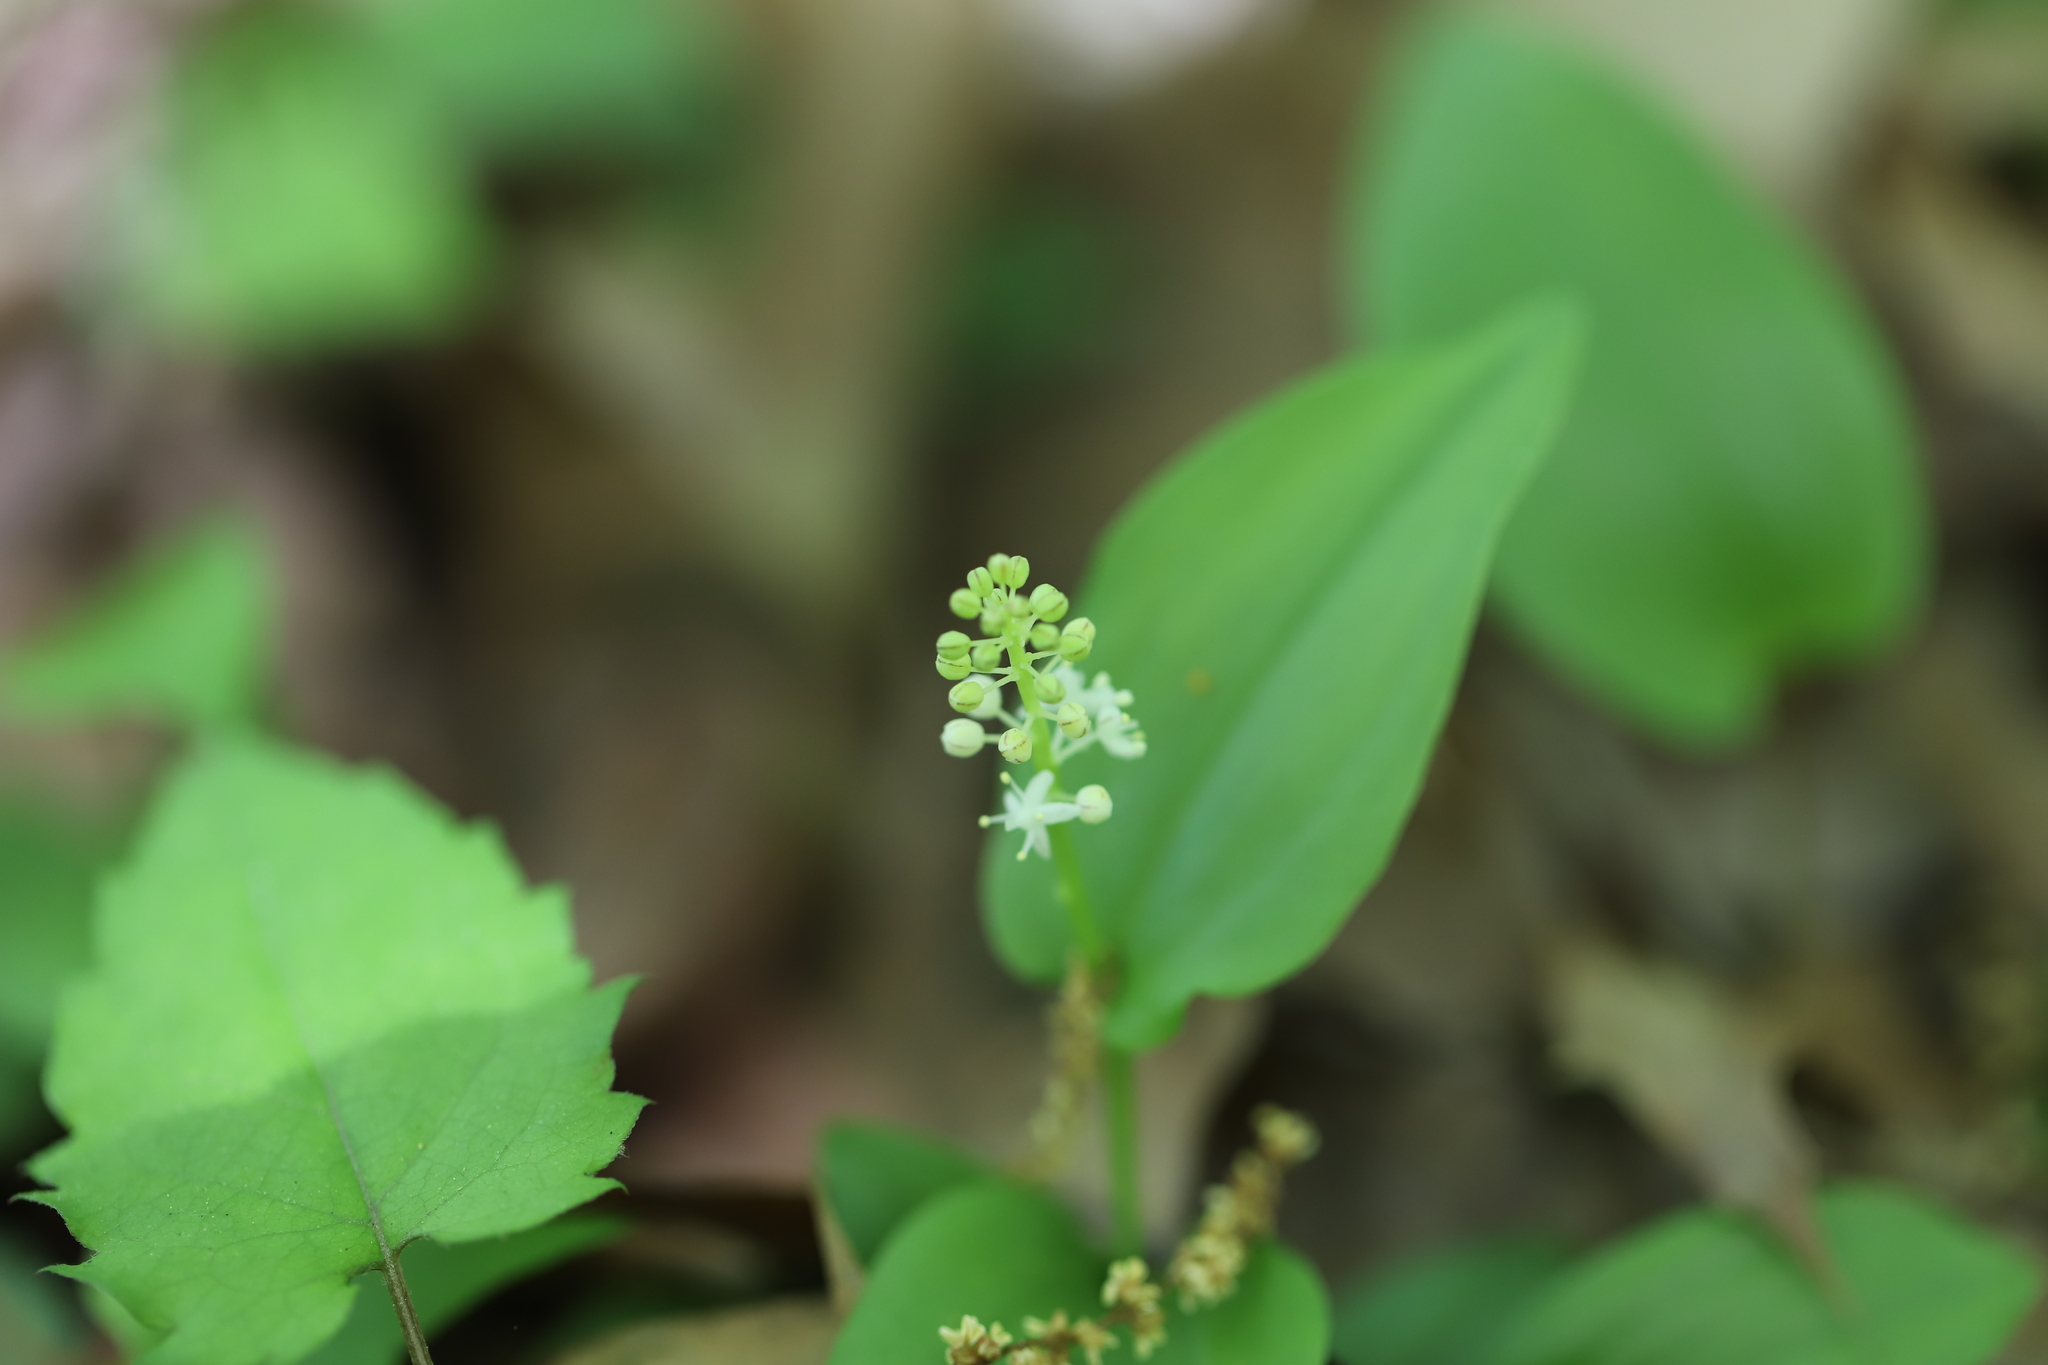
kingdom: Plantae
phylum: Tracheophyta
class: Liliopsida
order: Asparagales
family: Asparagaceae
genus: Maianthemum
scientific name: Maianthemum canadense
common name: False lily-of-the-valley
